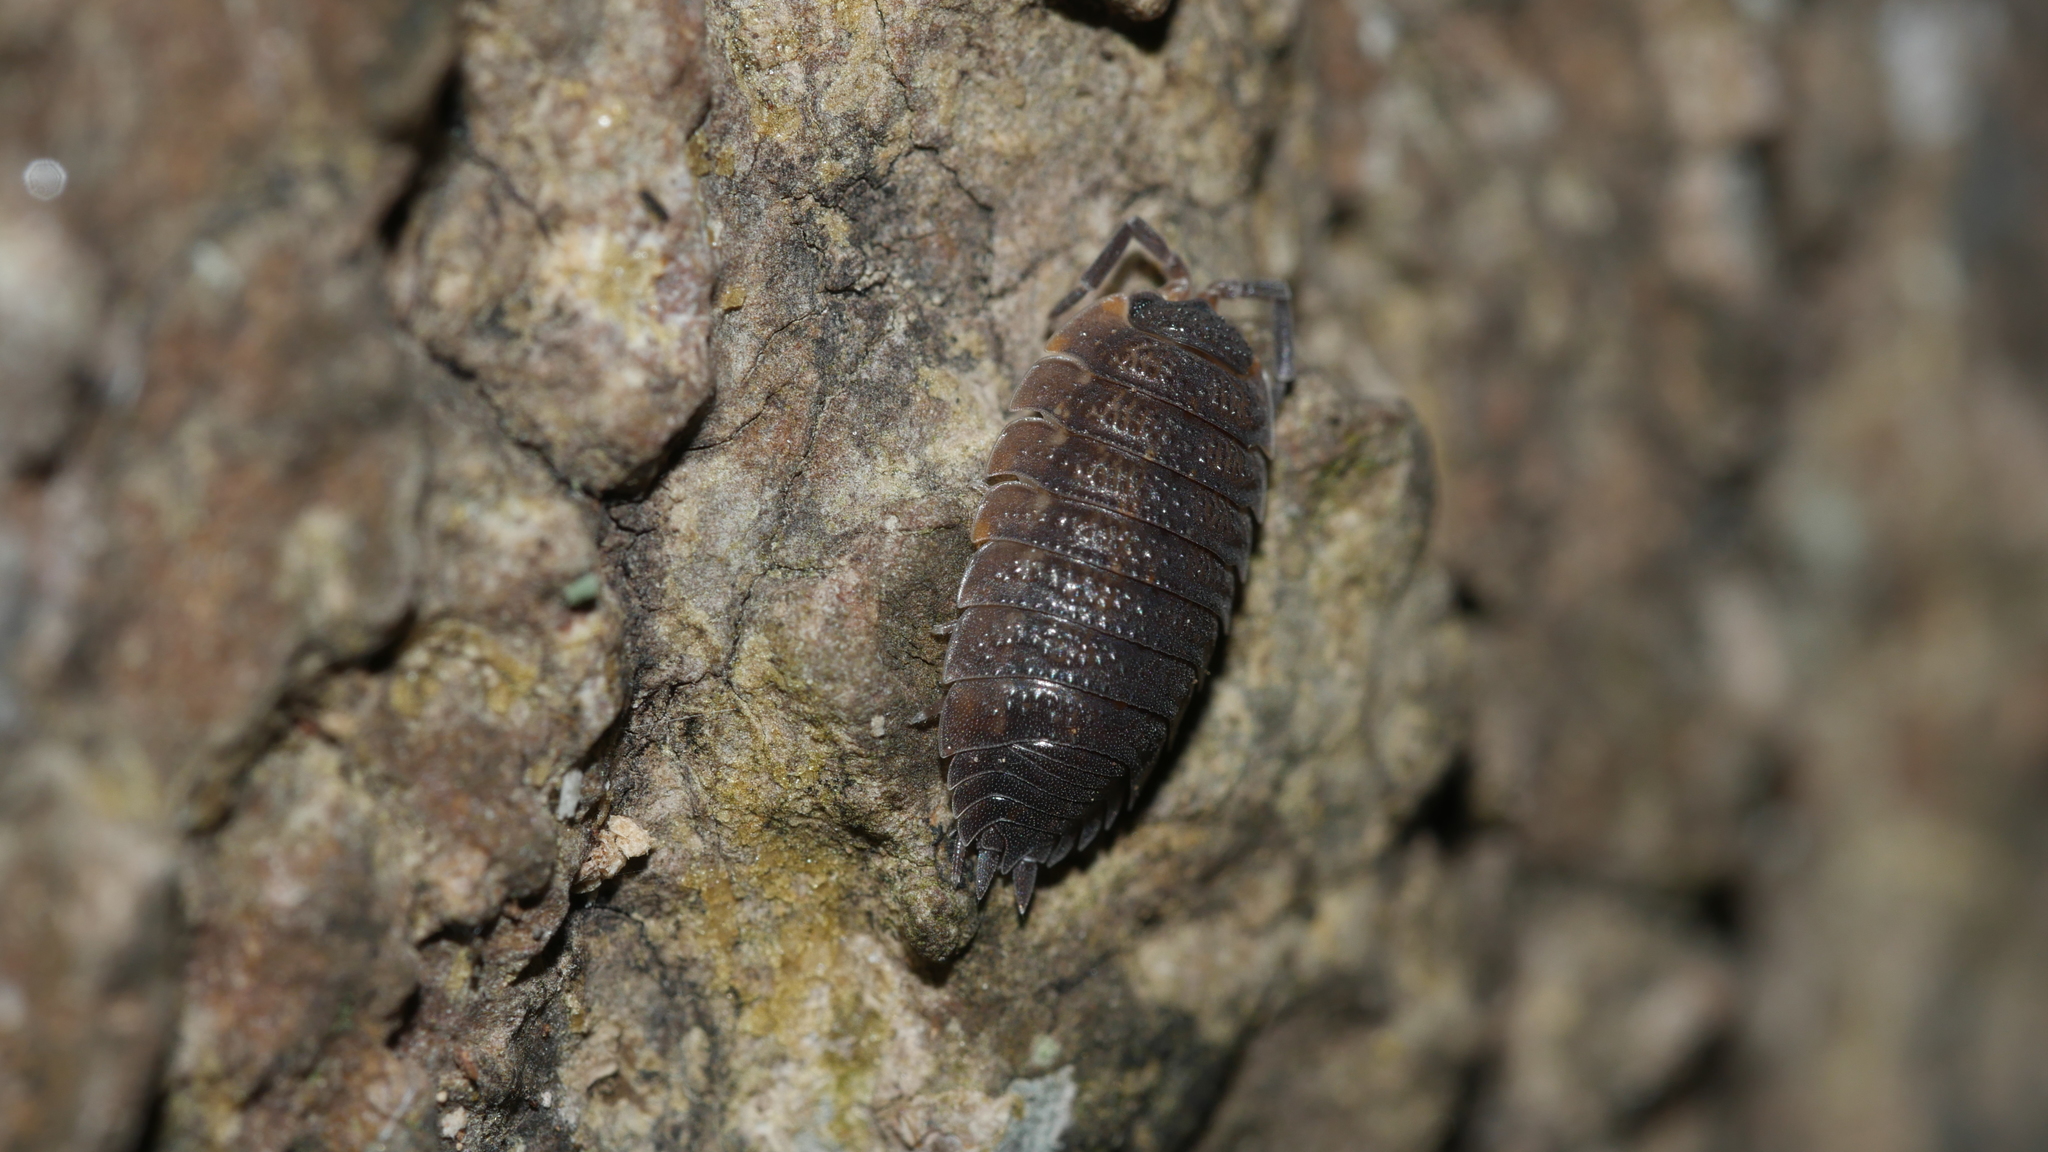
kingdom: Animalia
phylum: Arthropoda
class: Malacostraca
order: Isopoda
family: Porcellionidae
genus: Porcellio
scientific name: Porcellio scaber
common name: Common rough woodlouse
